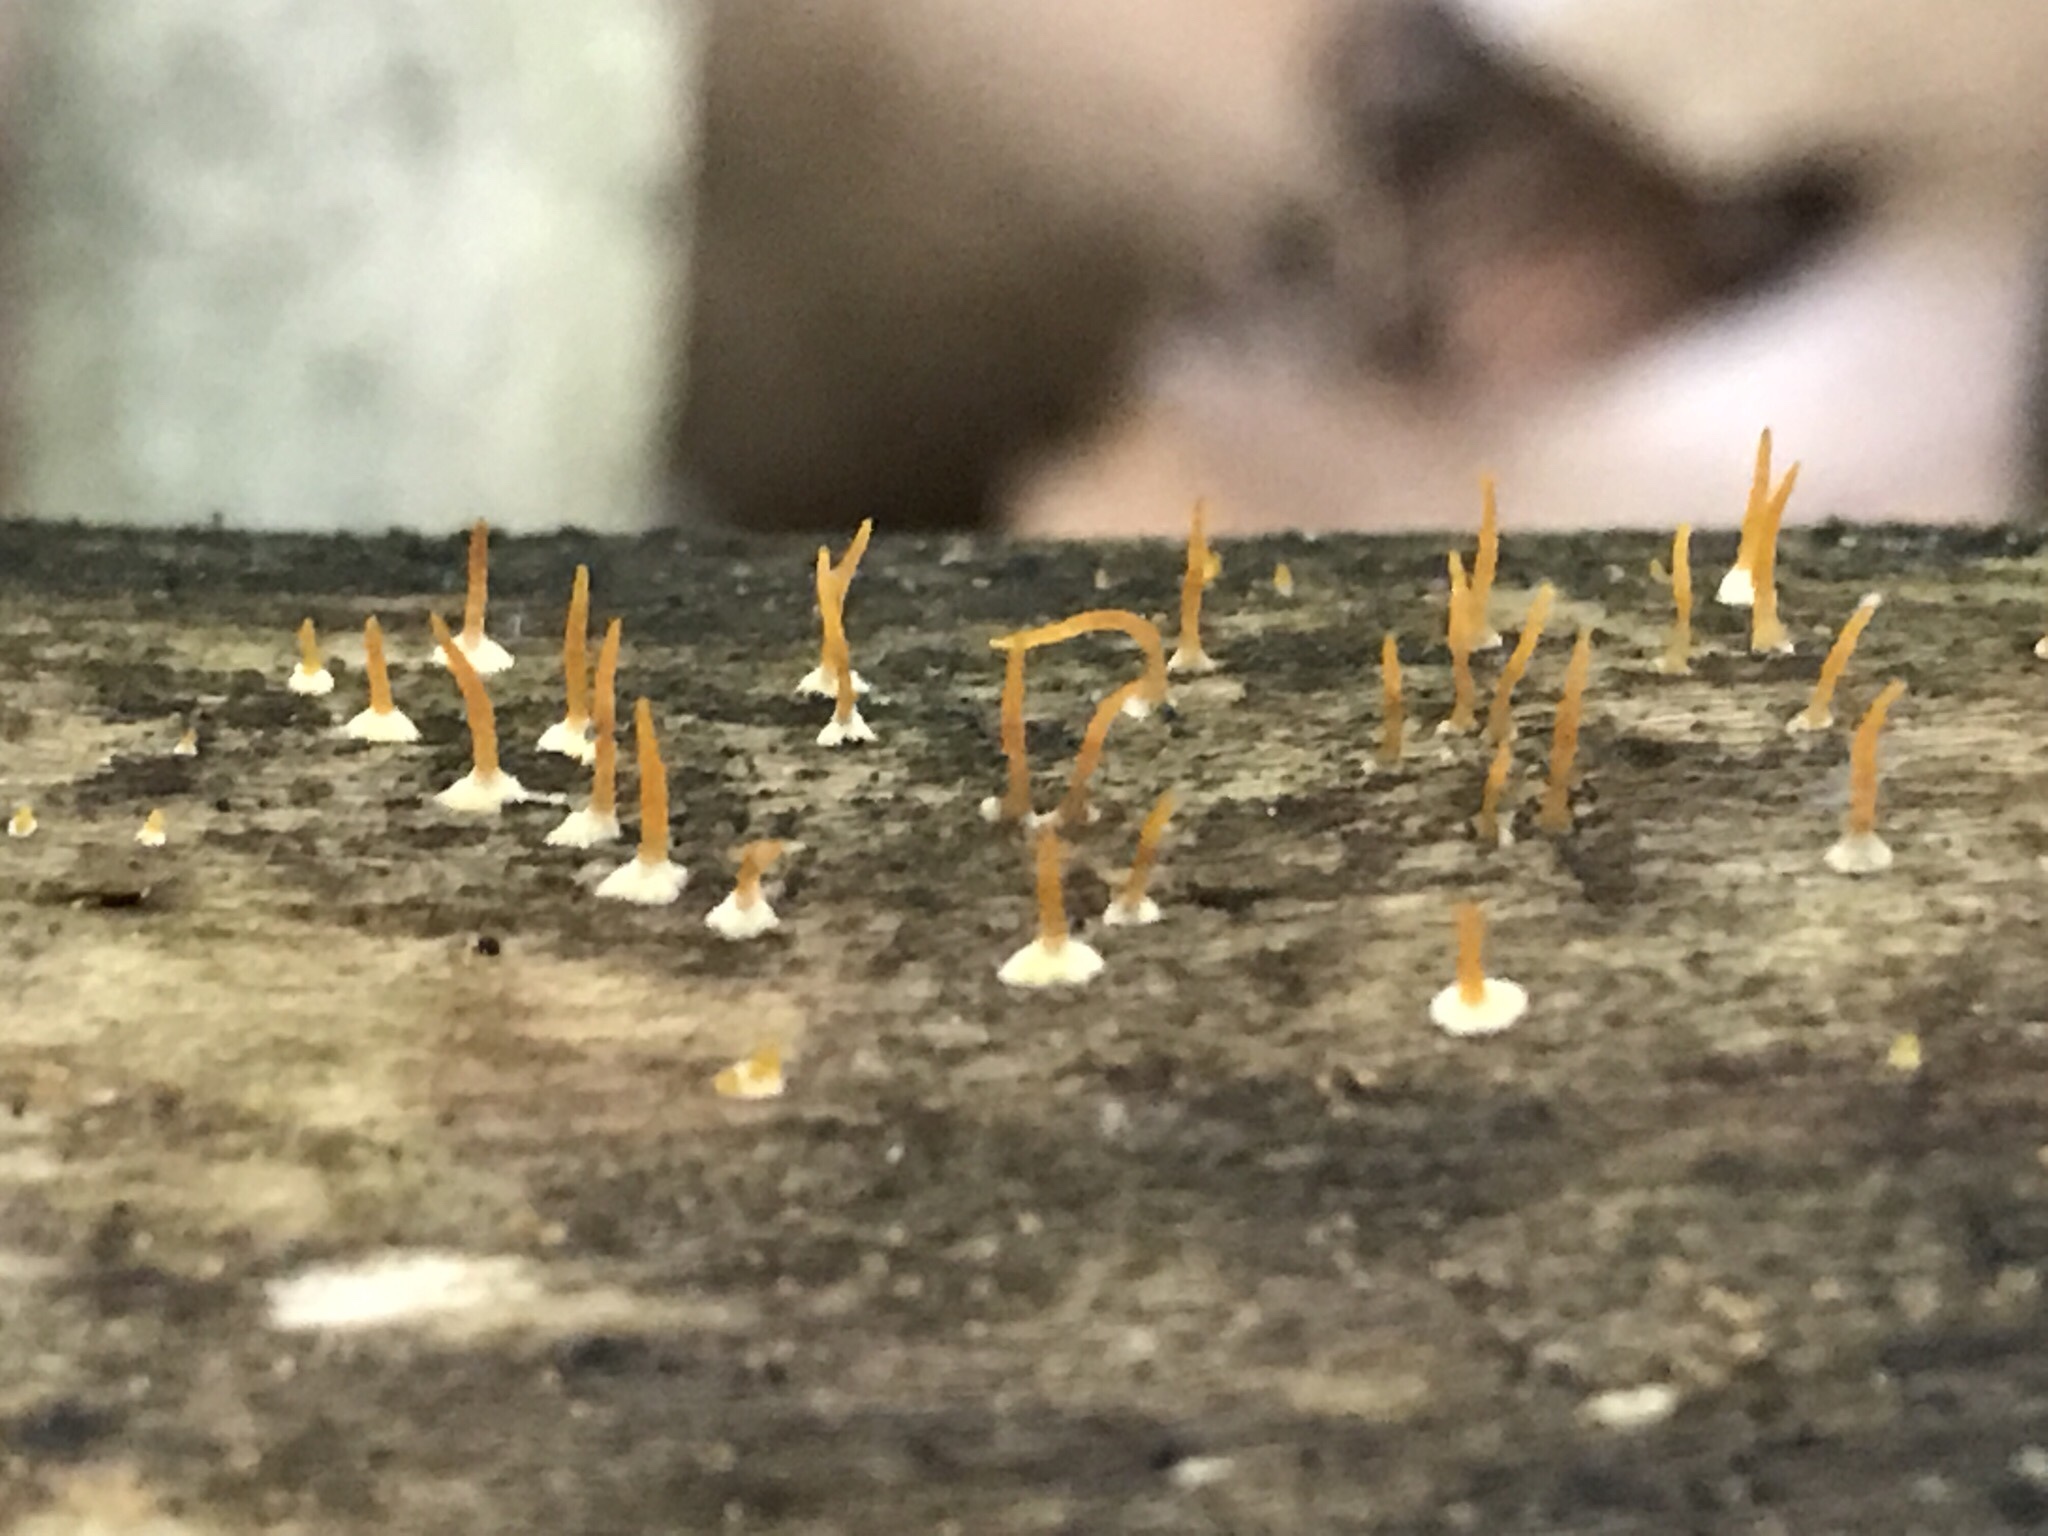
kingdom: Fungi
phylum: Basidiomycota
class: Dacrymycetes
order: Dacrymycetales
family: Dacrymycetaceae
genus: Calocera
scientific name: Calocera cornea
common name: Small stagshorn
